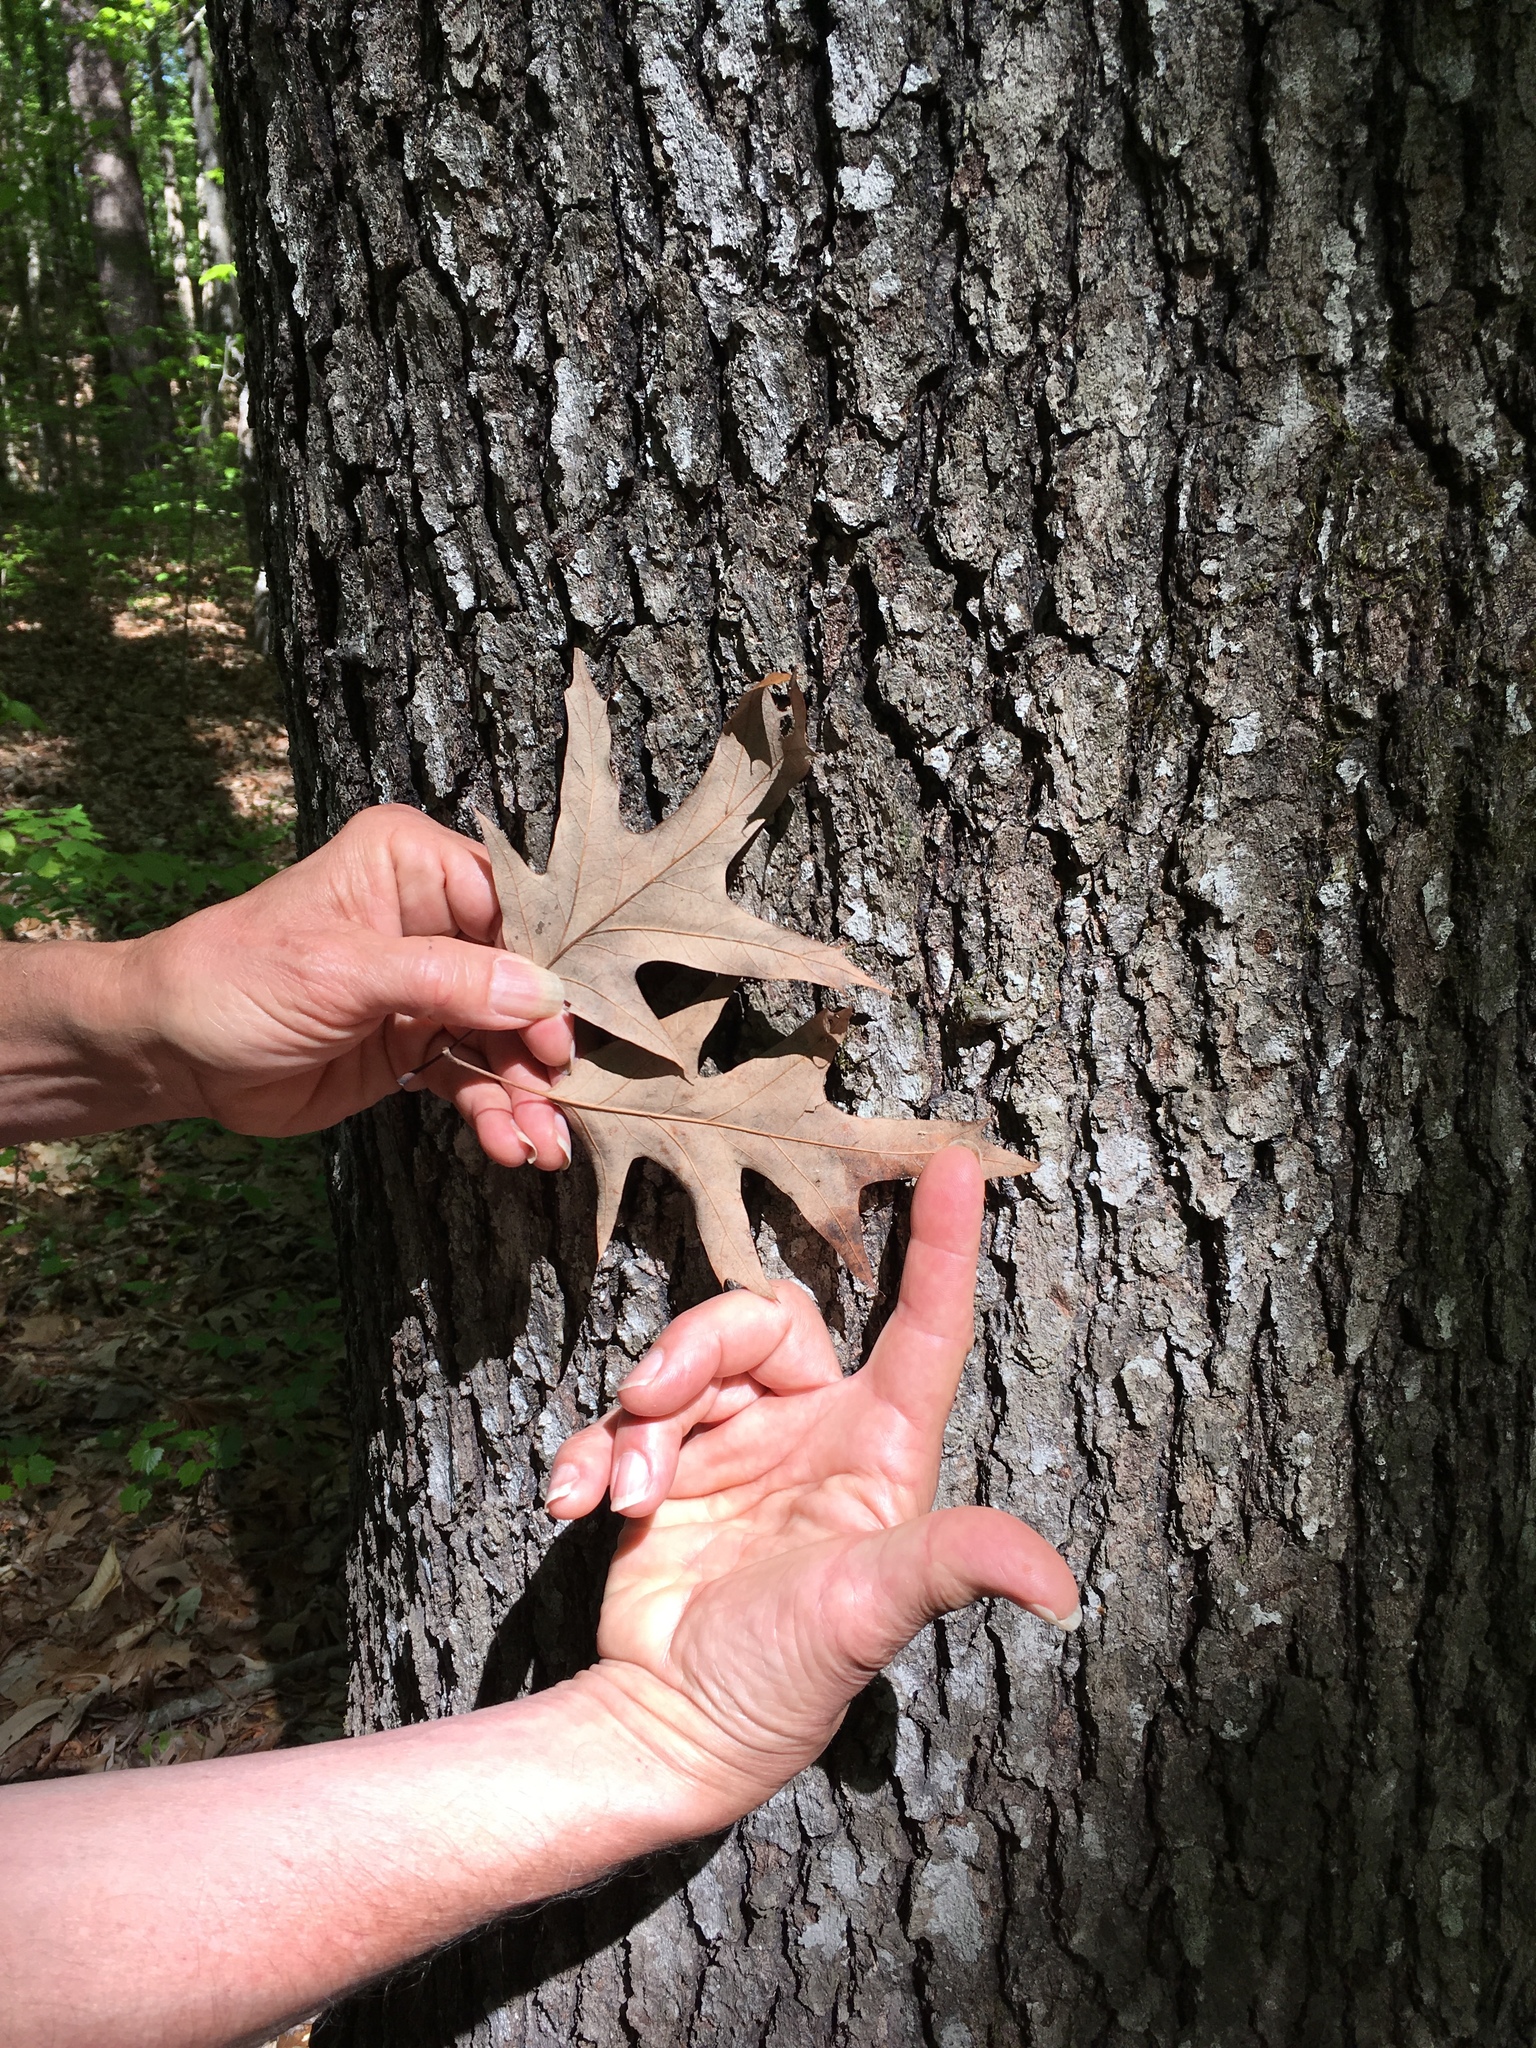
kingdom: Plantae
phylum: Tracheophyta
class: Magnoliopsida
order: Fagales
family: Fagaceae
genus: Quercus
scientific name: Quercus pagoda
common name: Cherrybark oak
